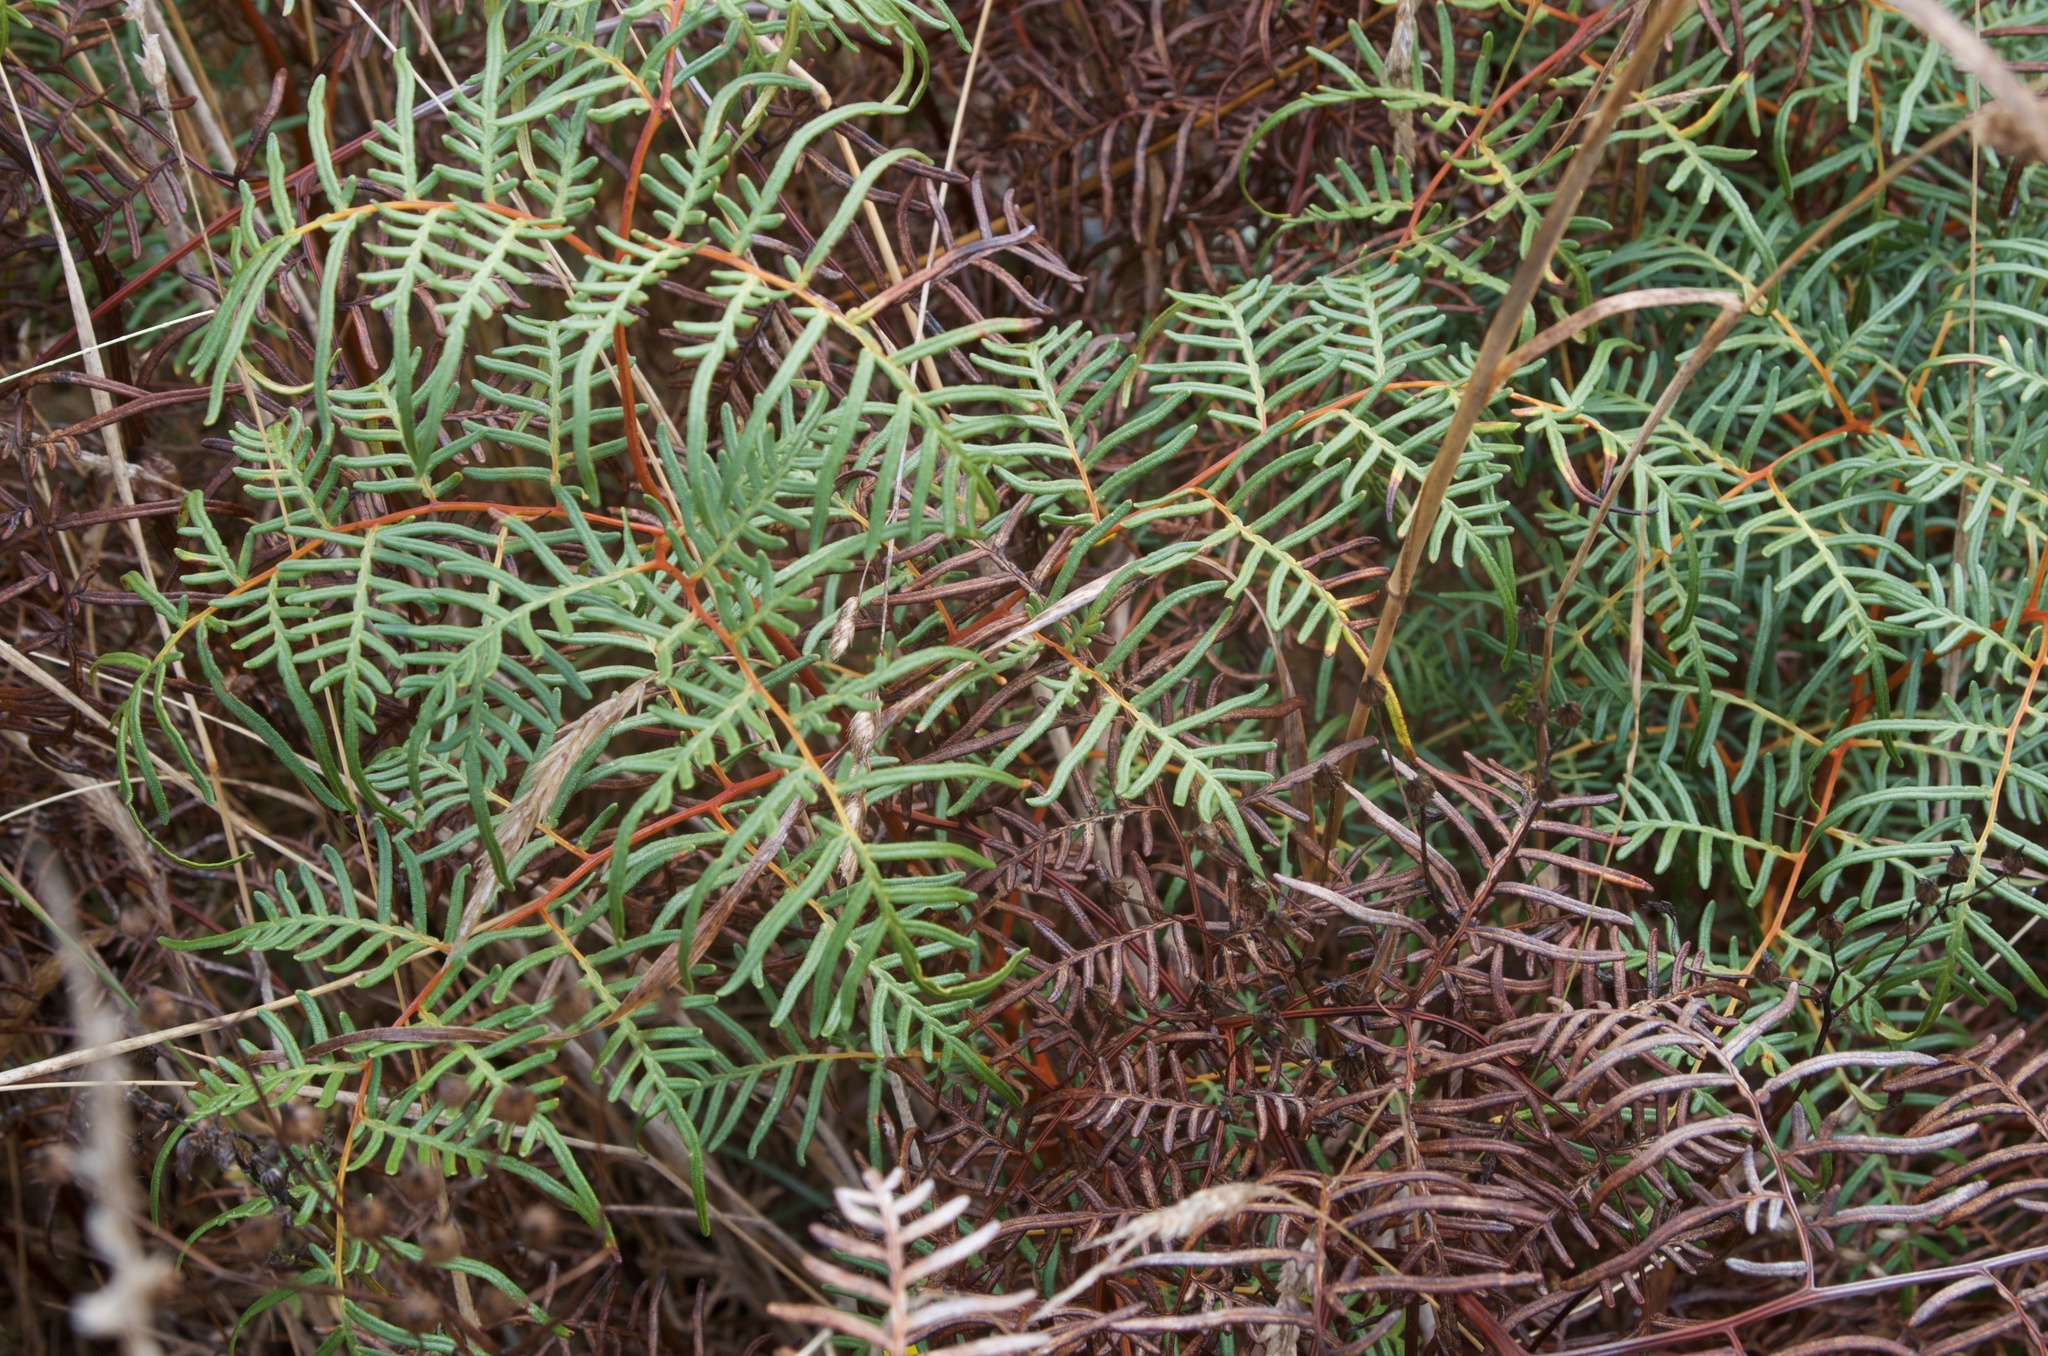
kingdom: Plantae
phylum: Tracheophyta
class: Polypodiopsida
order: Polypodiales
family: Dennstaedtiaceae
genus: Pteridium
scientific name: Pteridium esculentum
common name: Bracken fern
